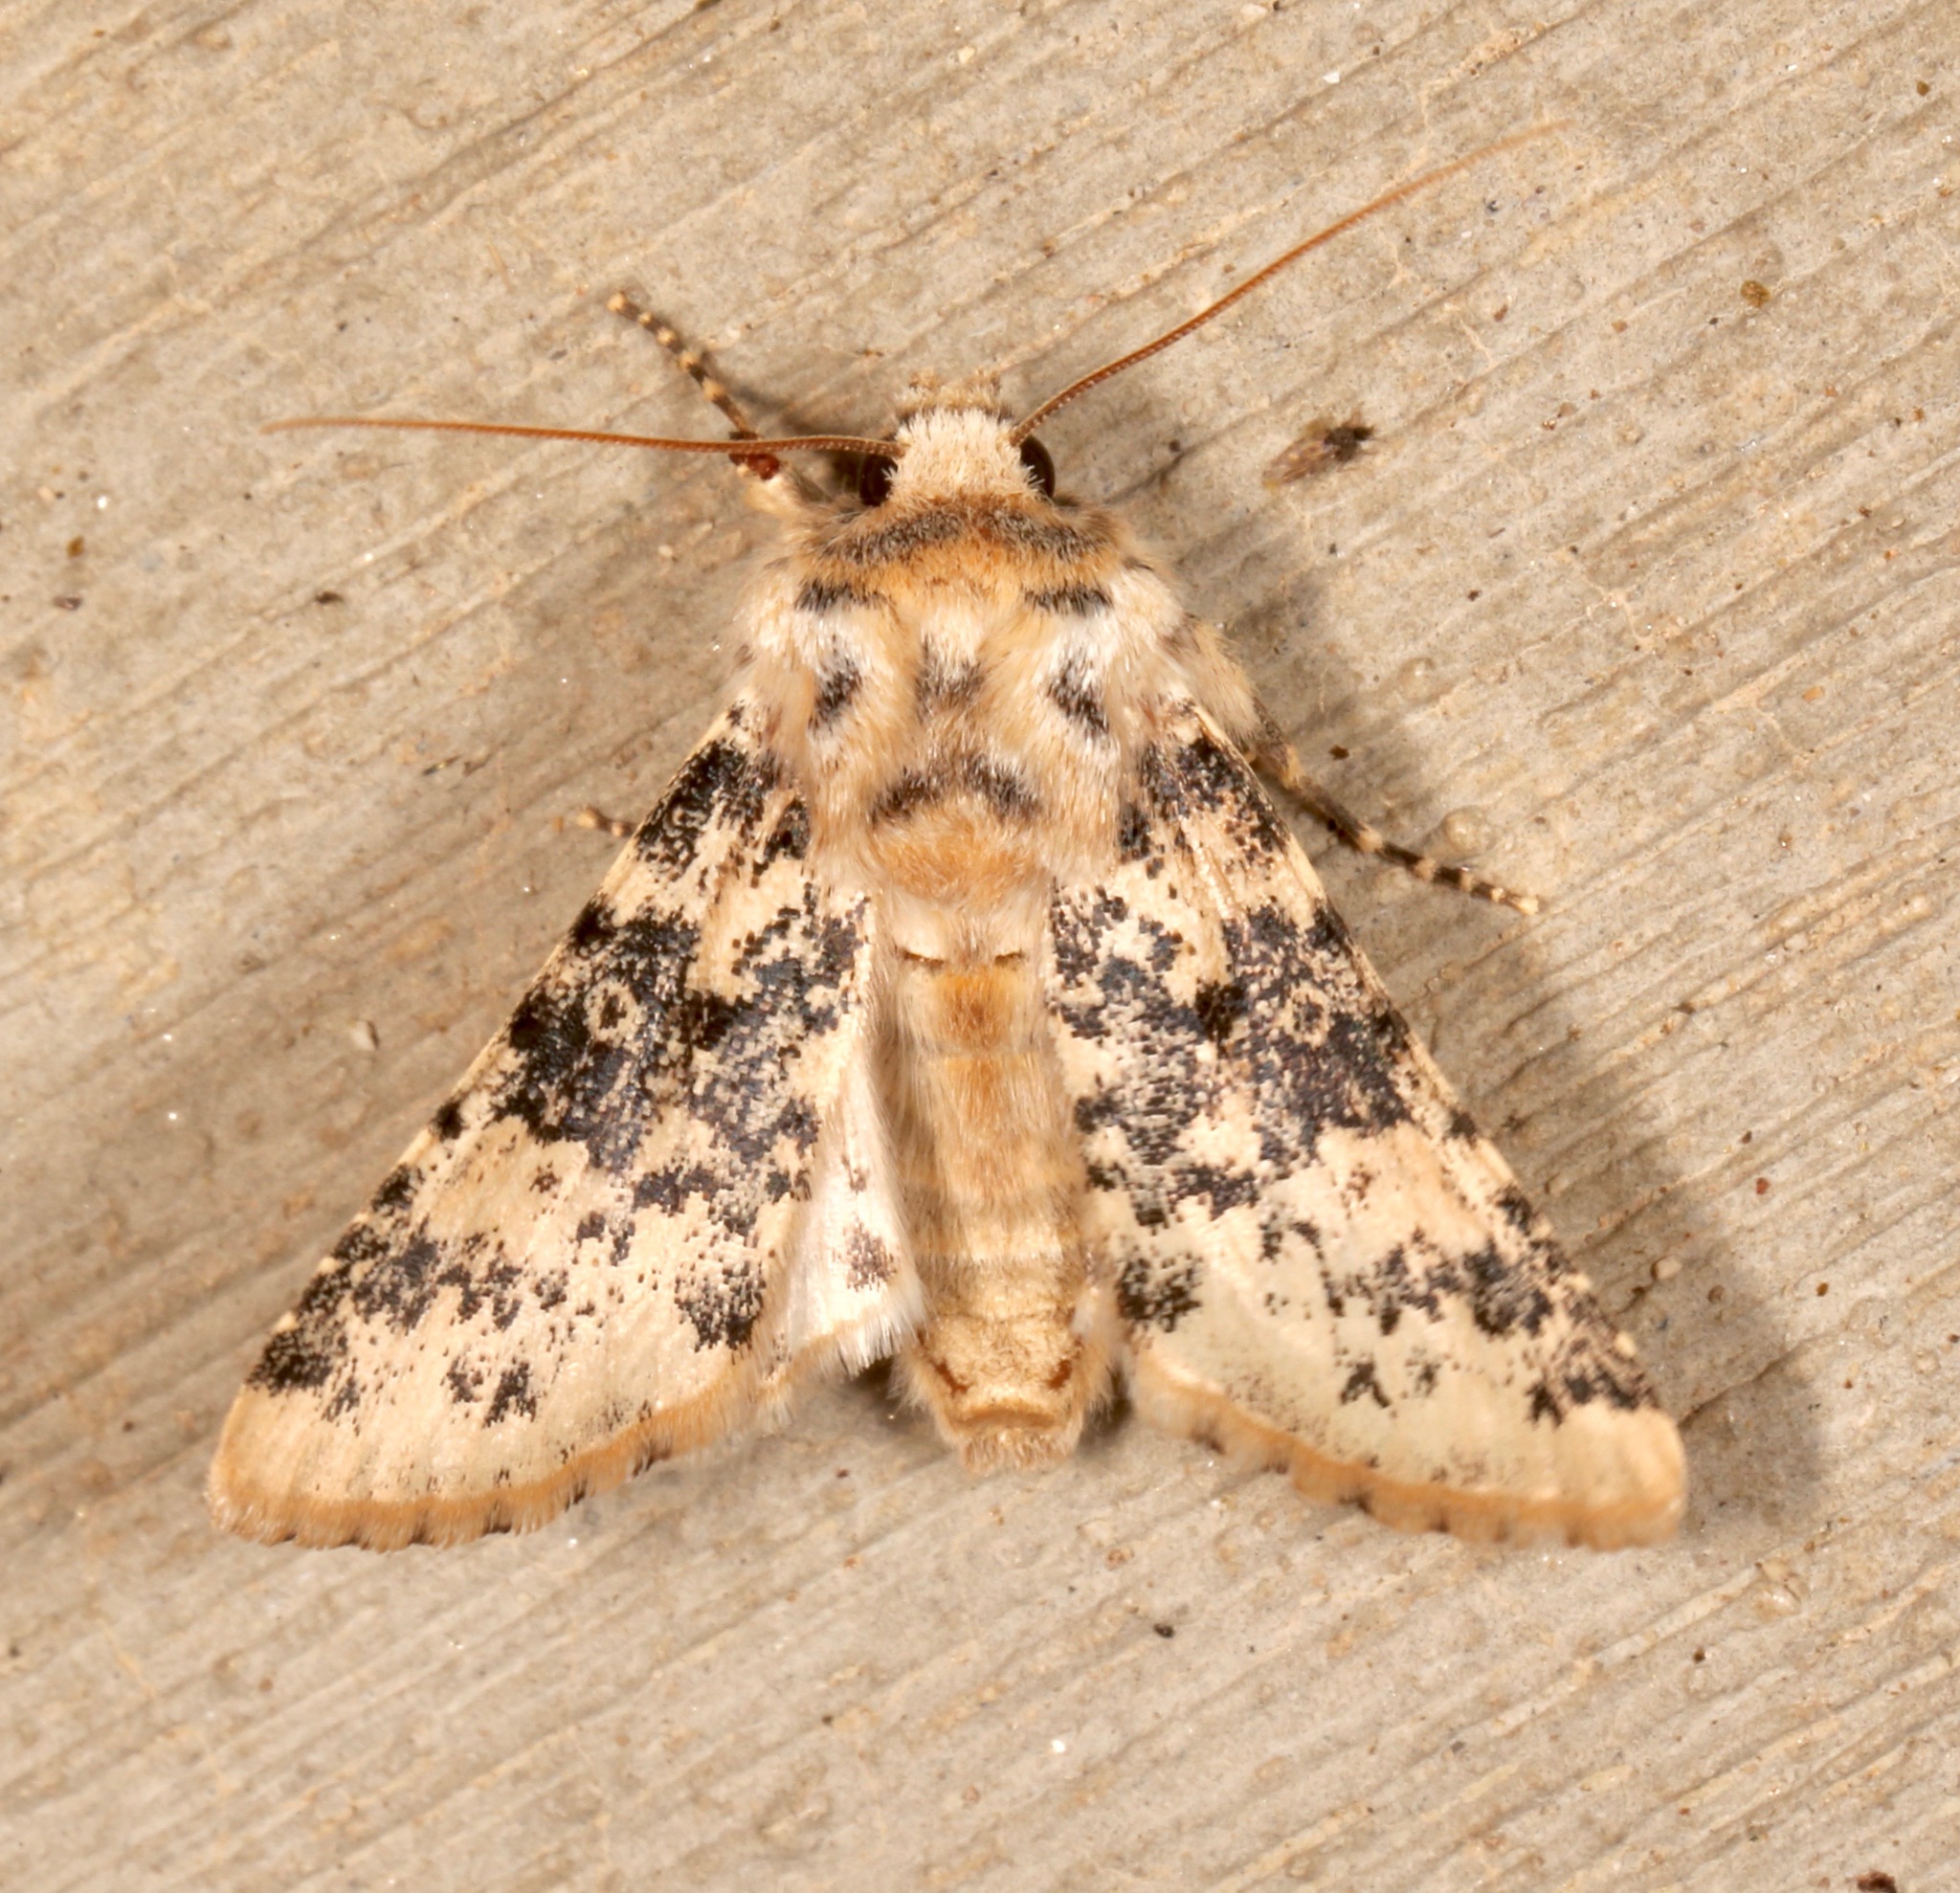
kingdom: Animalia
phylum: Arthropoda
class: Insecta
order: Lepidoptera
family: Noctuidae
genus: Unciella
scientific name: Unciella primula
